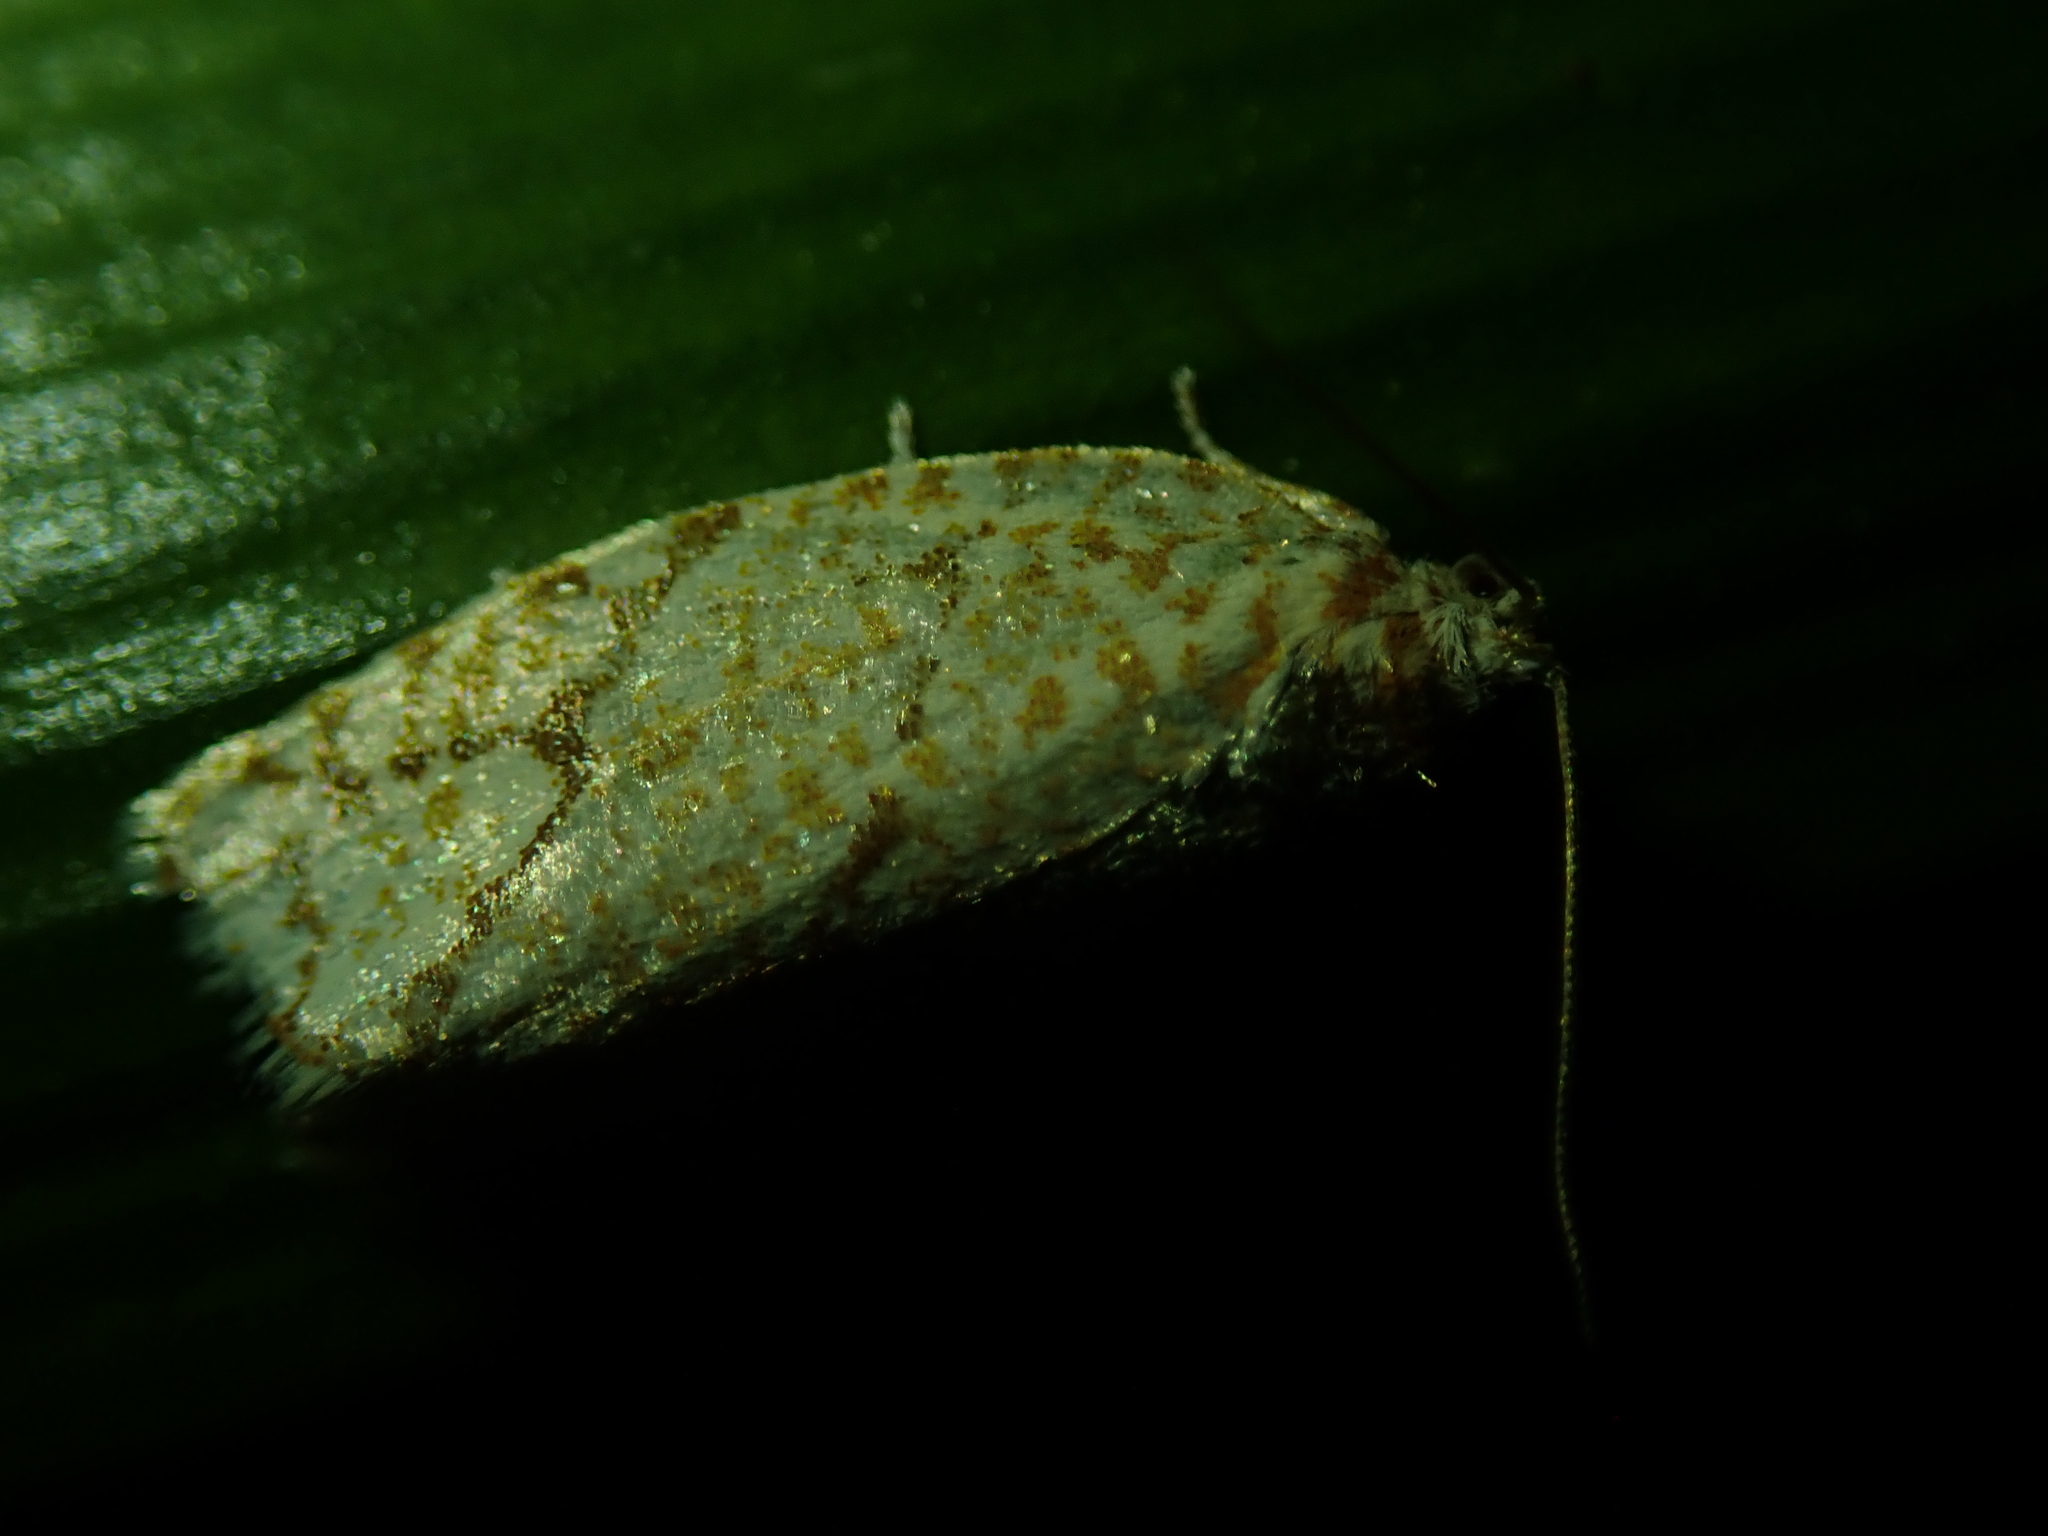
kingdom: Animalia
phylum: Arthropoda
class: Insecta
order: Lepidoptera
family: Tortricidae
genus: Argyrotaenia
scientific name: Argyrotaenia quercifoliana
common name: Yellow-winged oak leafroller moth
